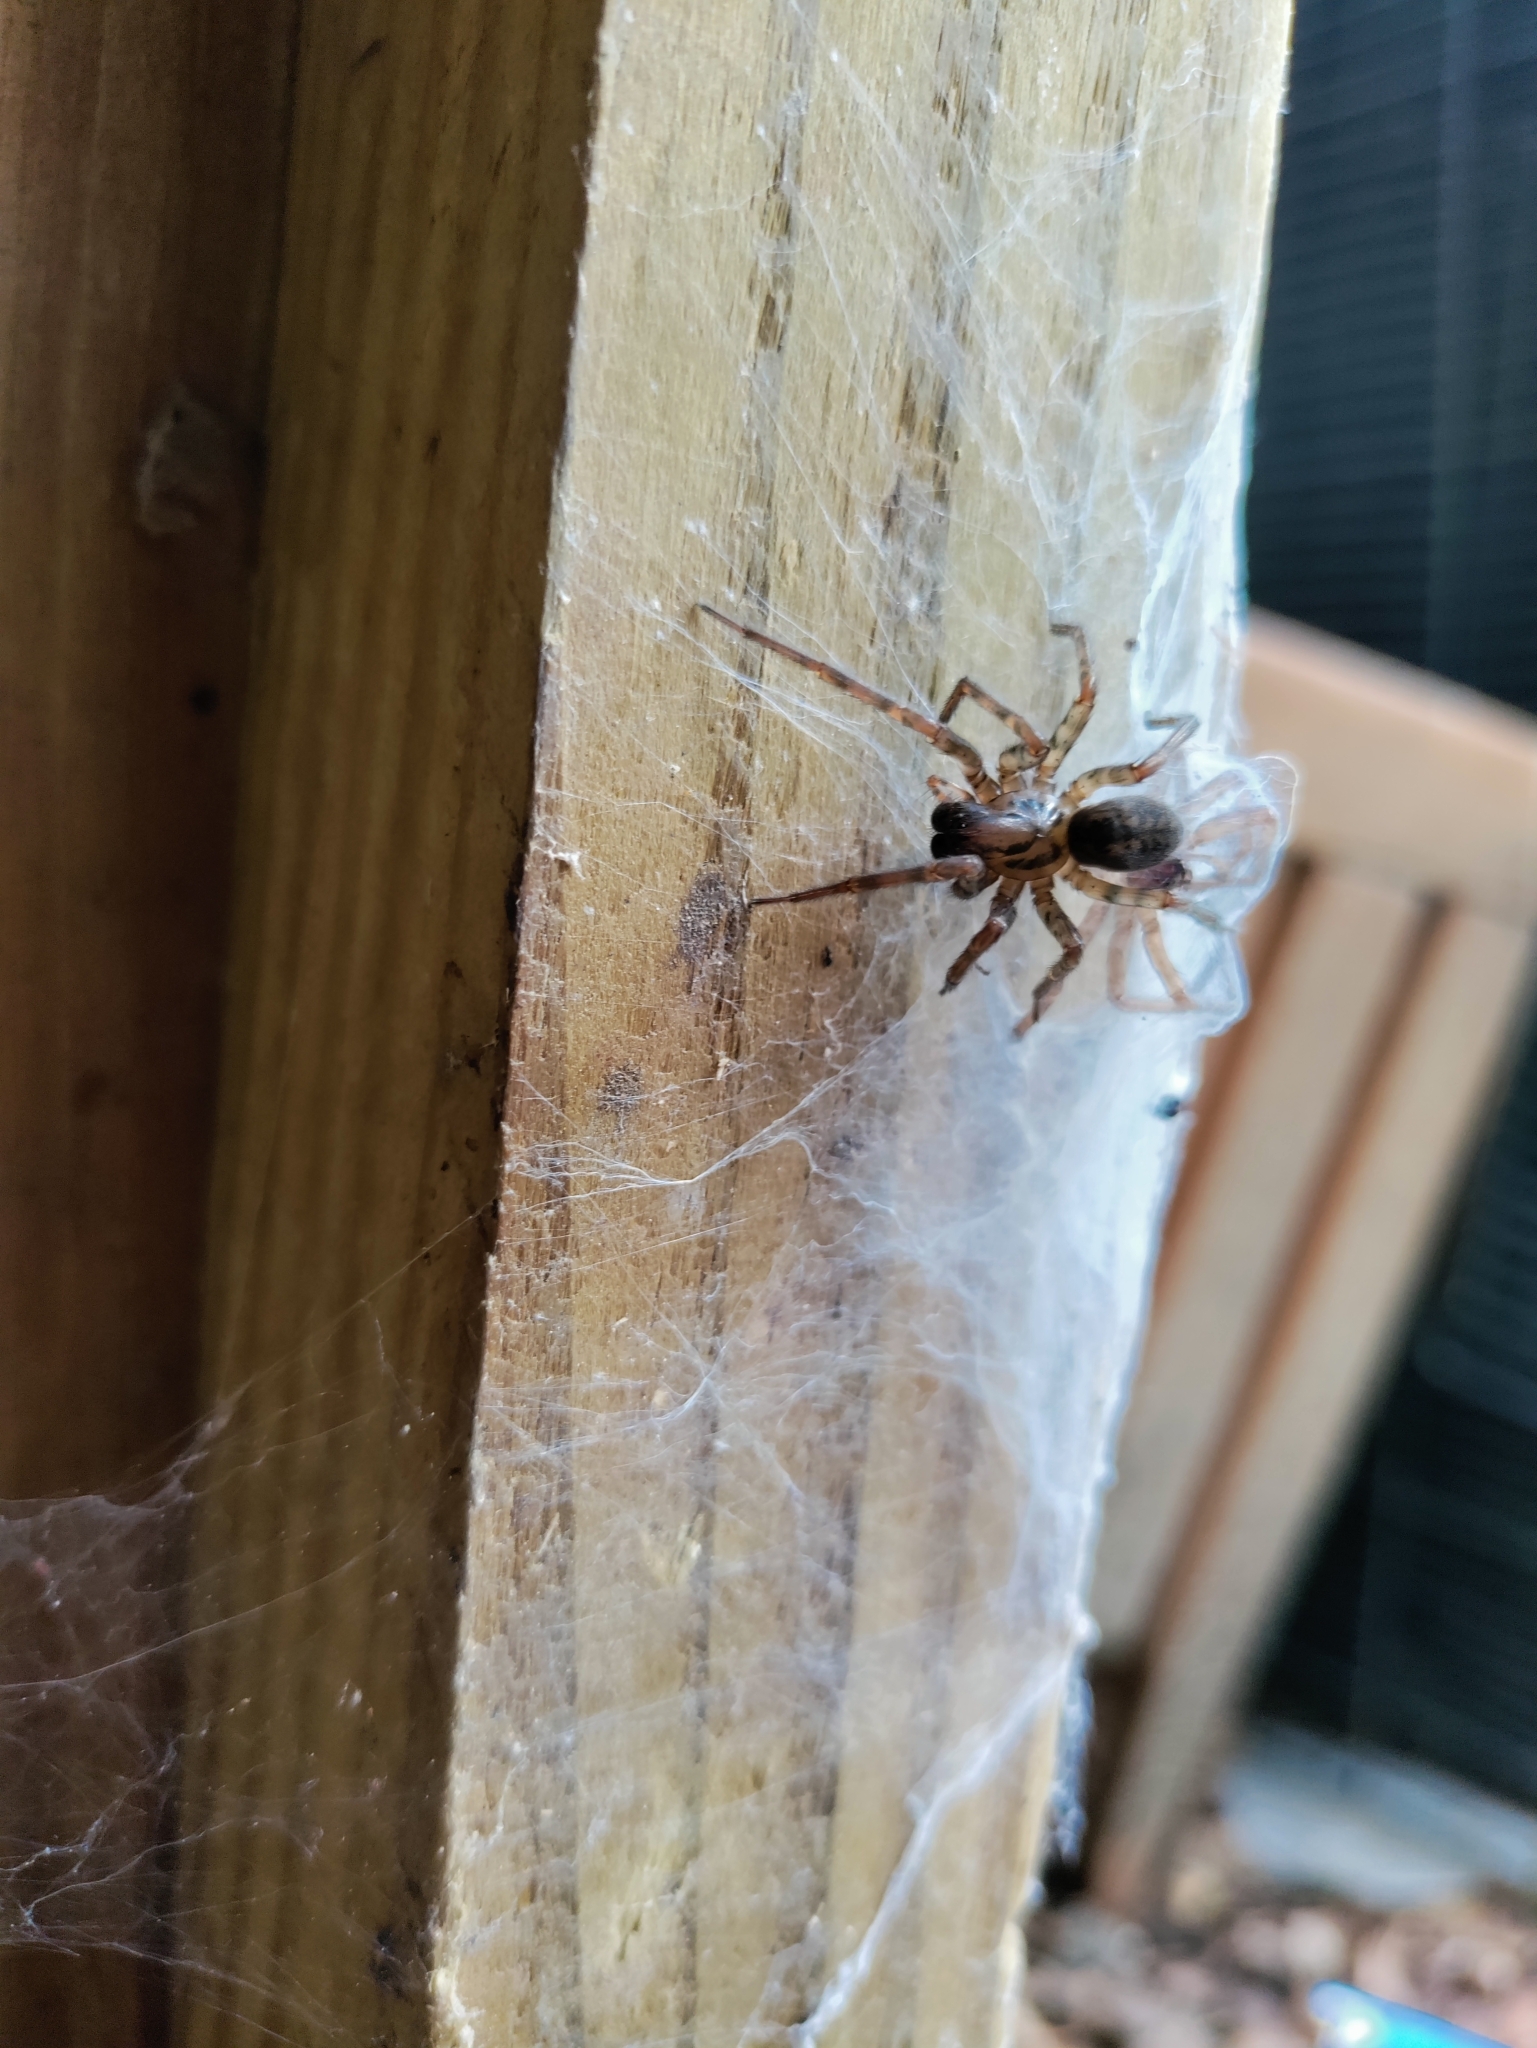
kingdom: Animalia
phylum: Arthropoda
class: Arachnida
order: Araneae
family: Agelenidae
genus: Coras
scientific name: Coras
